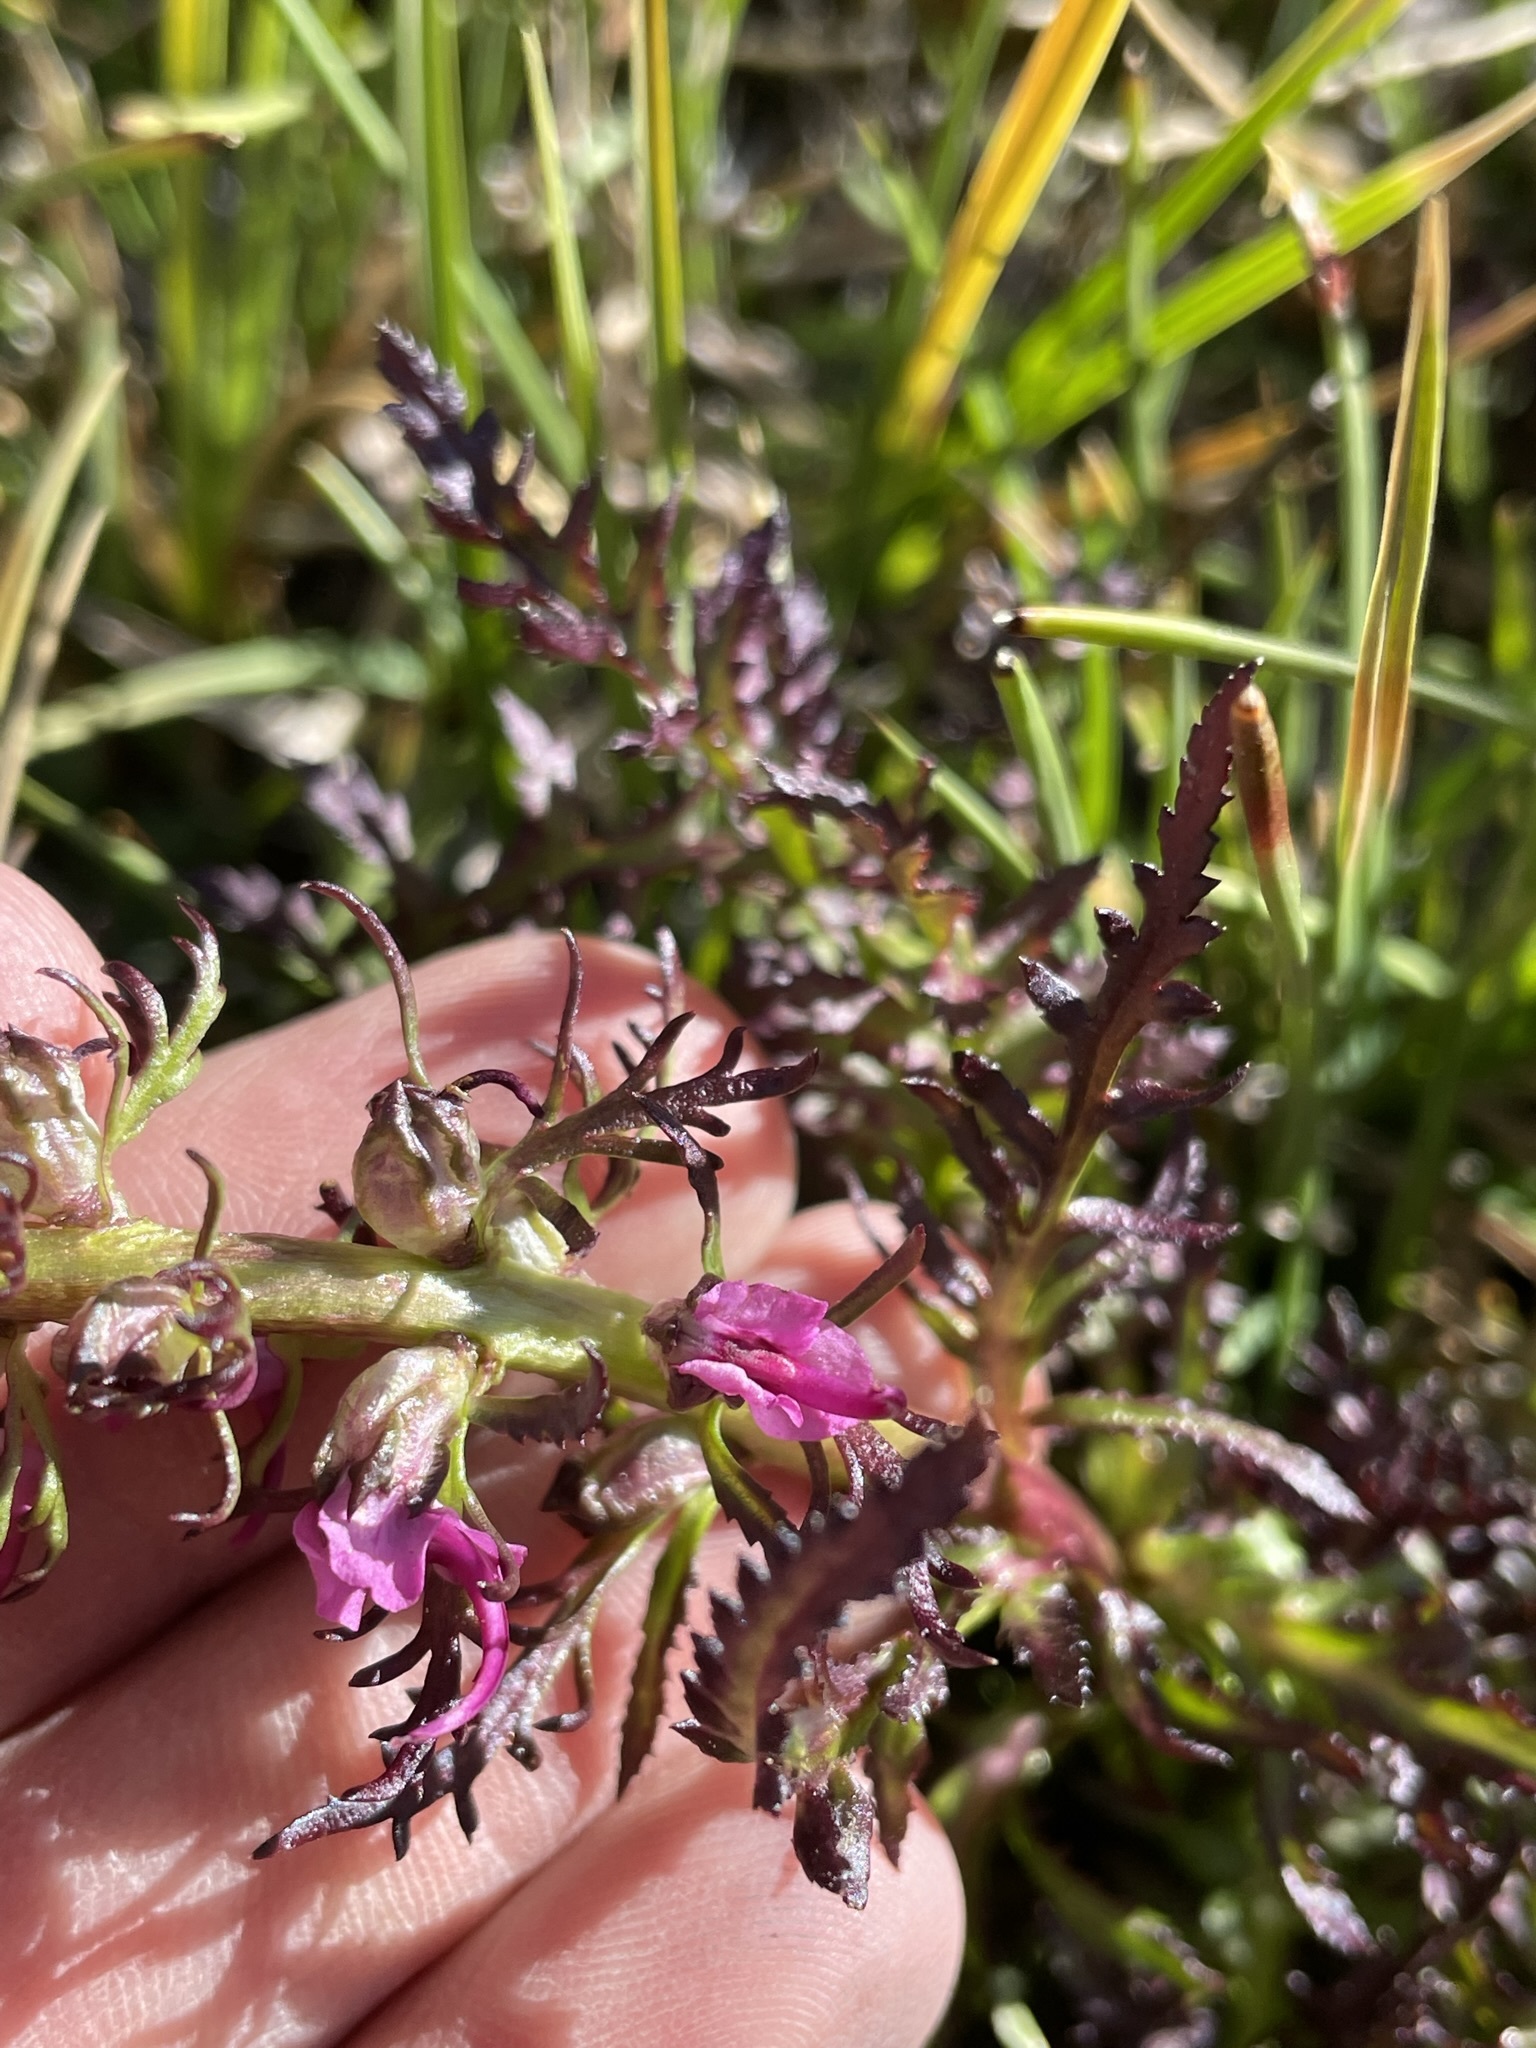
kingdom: Plantae
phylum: Tracheophyta
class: Magnoliopsida
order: Lamiales
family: Orobanchaceae
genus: Pedicularis
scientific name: Pedicularis groenlandica
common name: Elephant's-head
